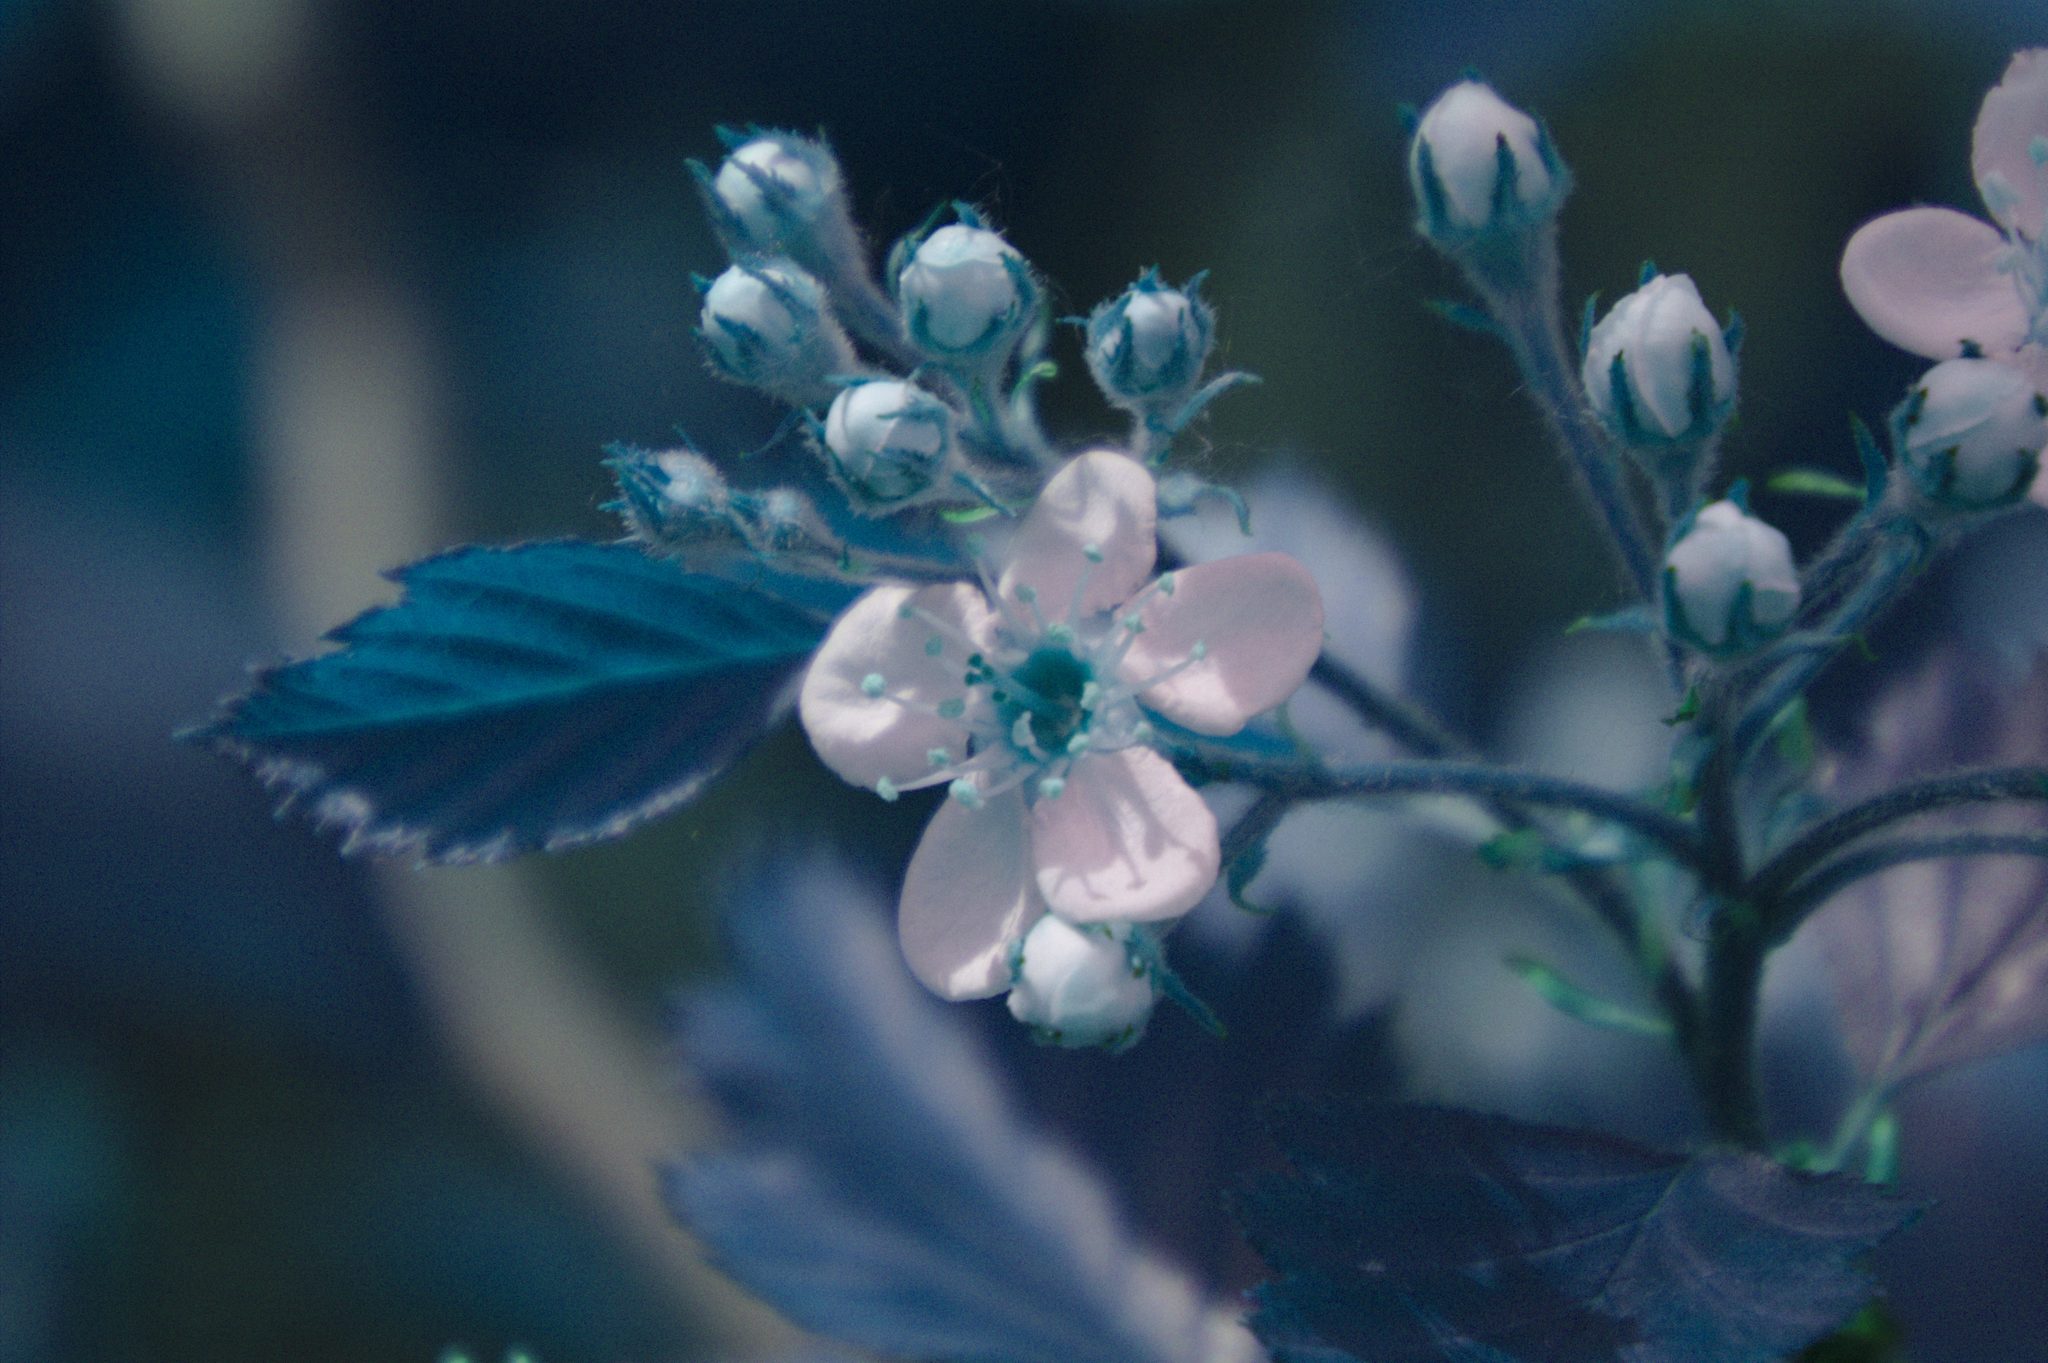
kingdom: Plantae
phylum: Tracheophyta
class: Magnoliopsida
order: Rosales
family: Rosaceae
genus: Crataegus
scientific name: Crataegus submollis
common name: Hairy cockspurthorn
